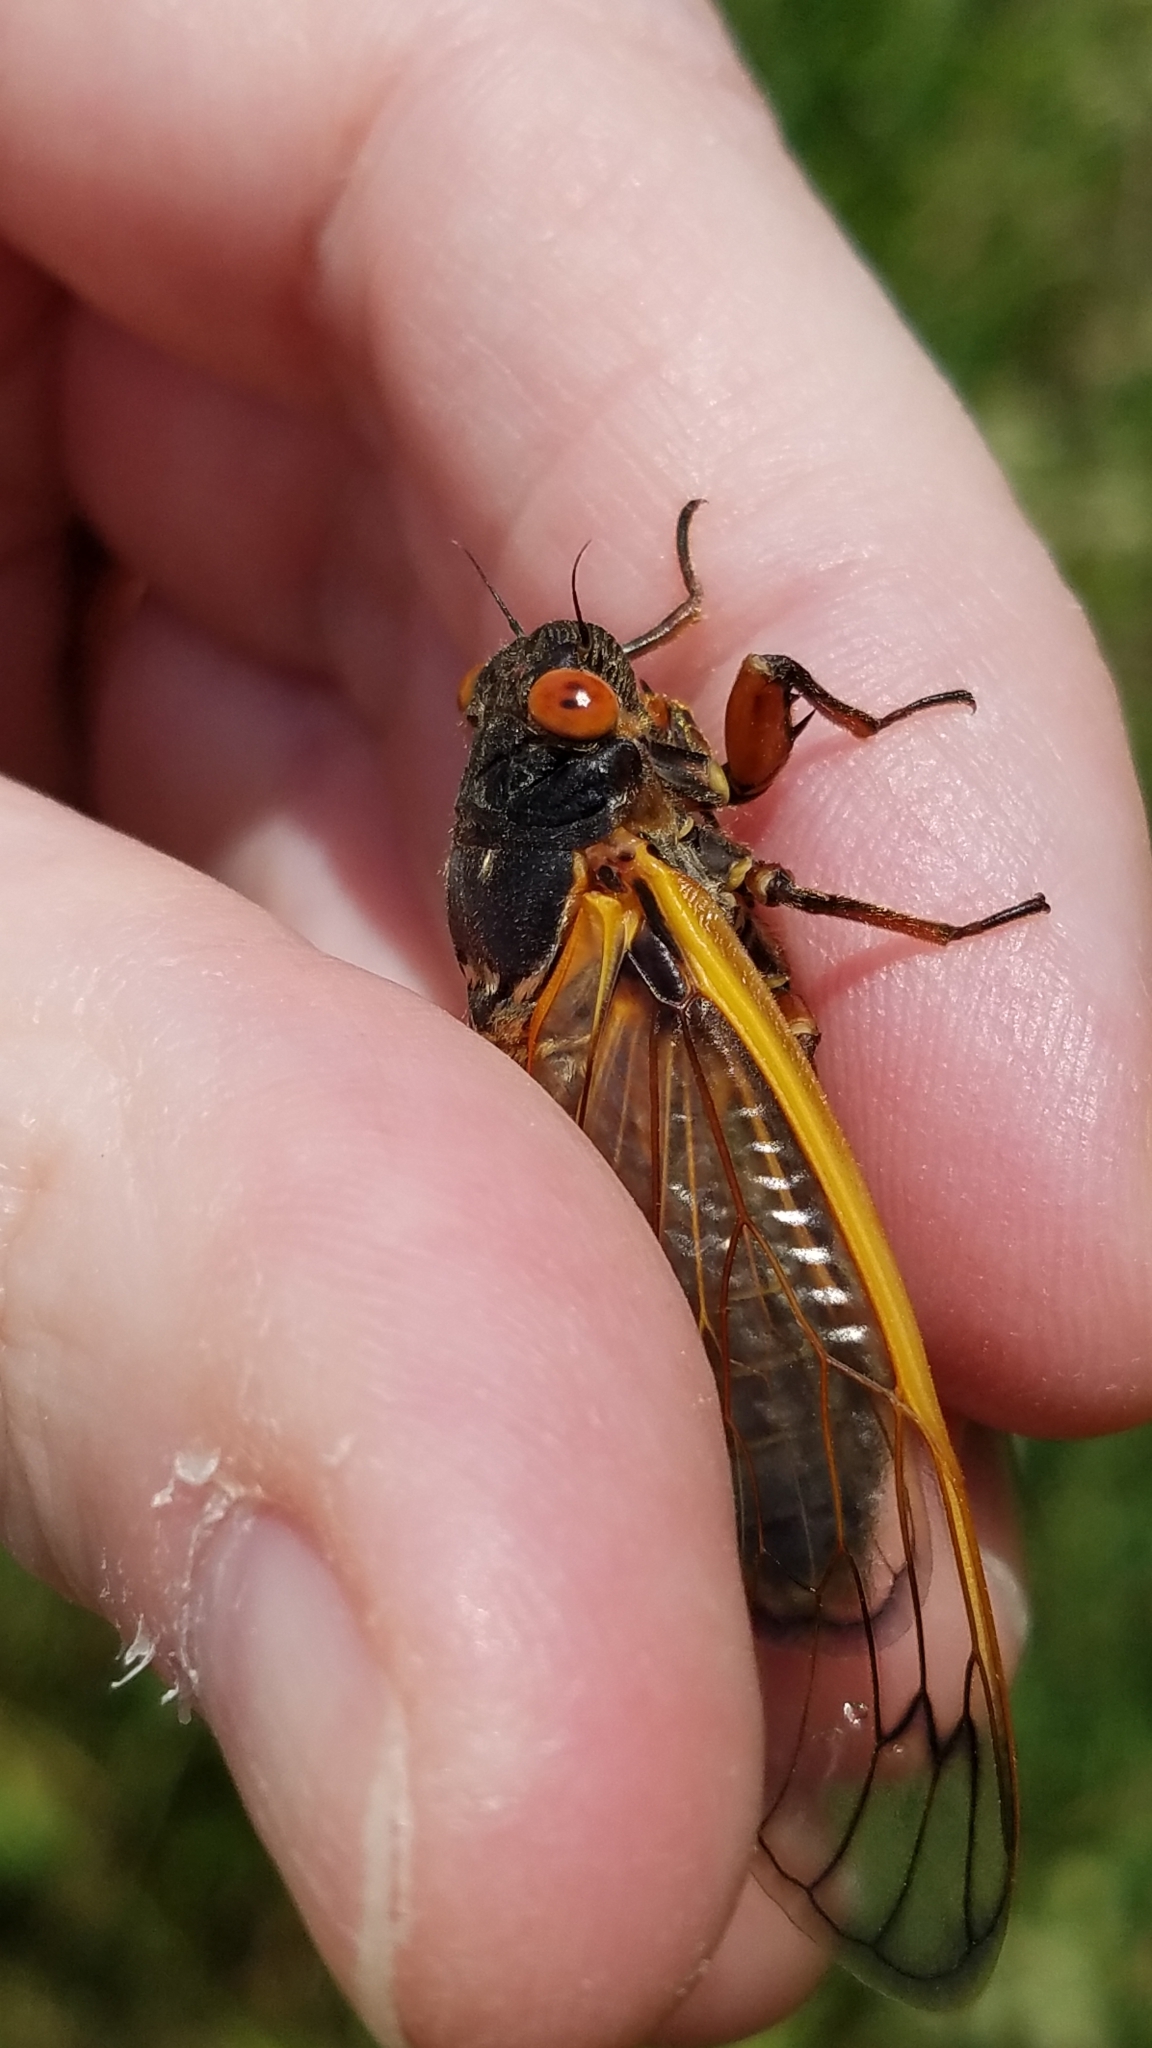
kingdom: Animalia
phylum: Arthropoda
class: Insecta
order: Hemiptera
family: Cicadidae
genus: Magicicada
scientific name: Magicicada septendecim
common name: Periodical cicada
